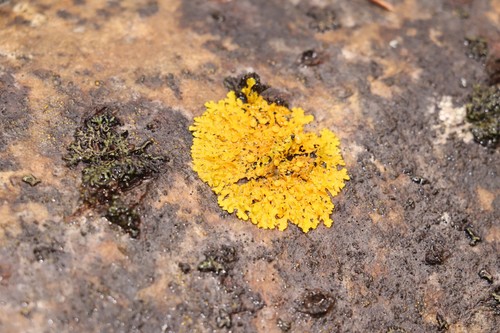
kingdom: Fungi
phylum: Ascomycota
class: Lecanoromycetes
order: Teloschistales
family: Teloschistaceae
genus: Xanthoria
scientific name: Xanthoria
